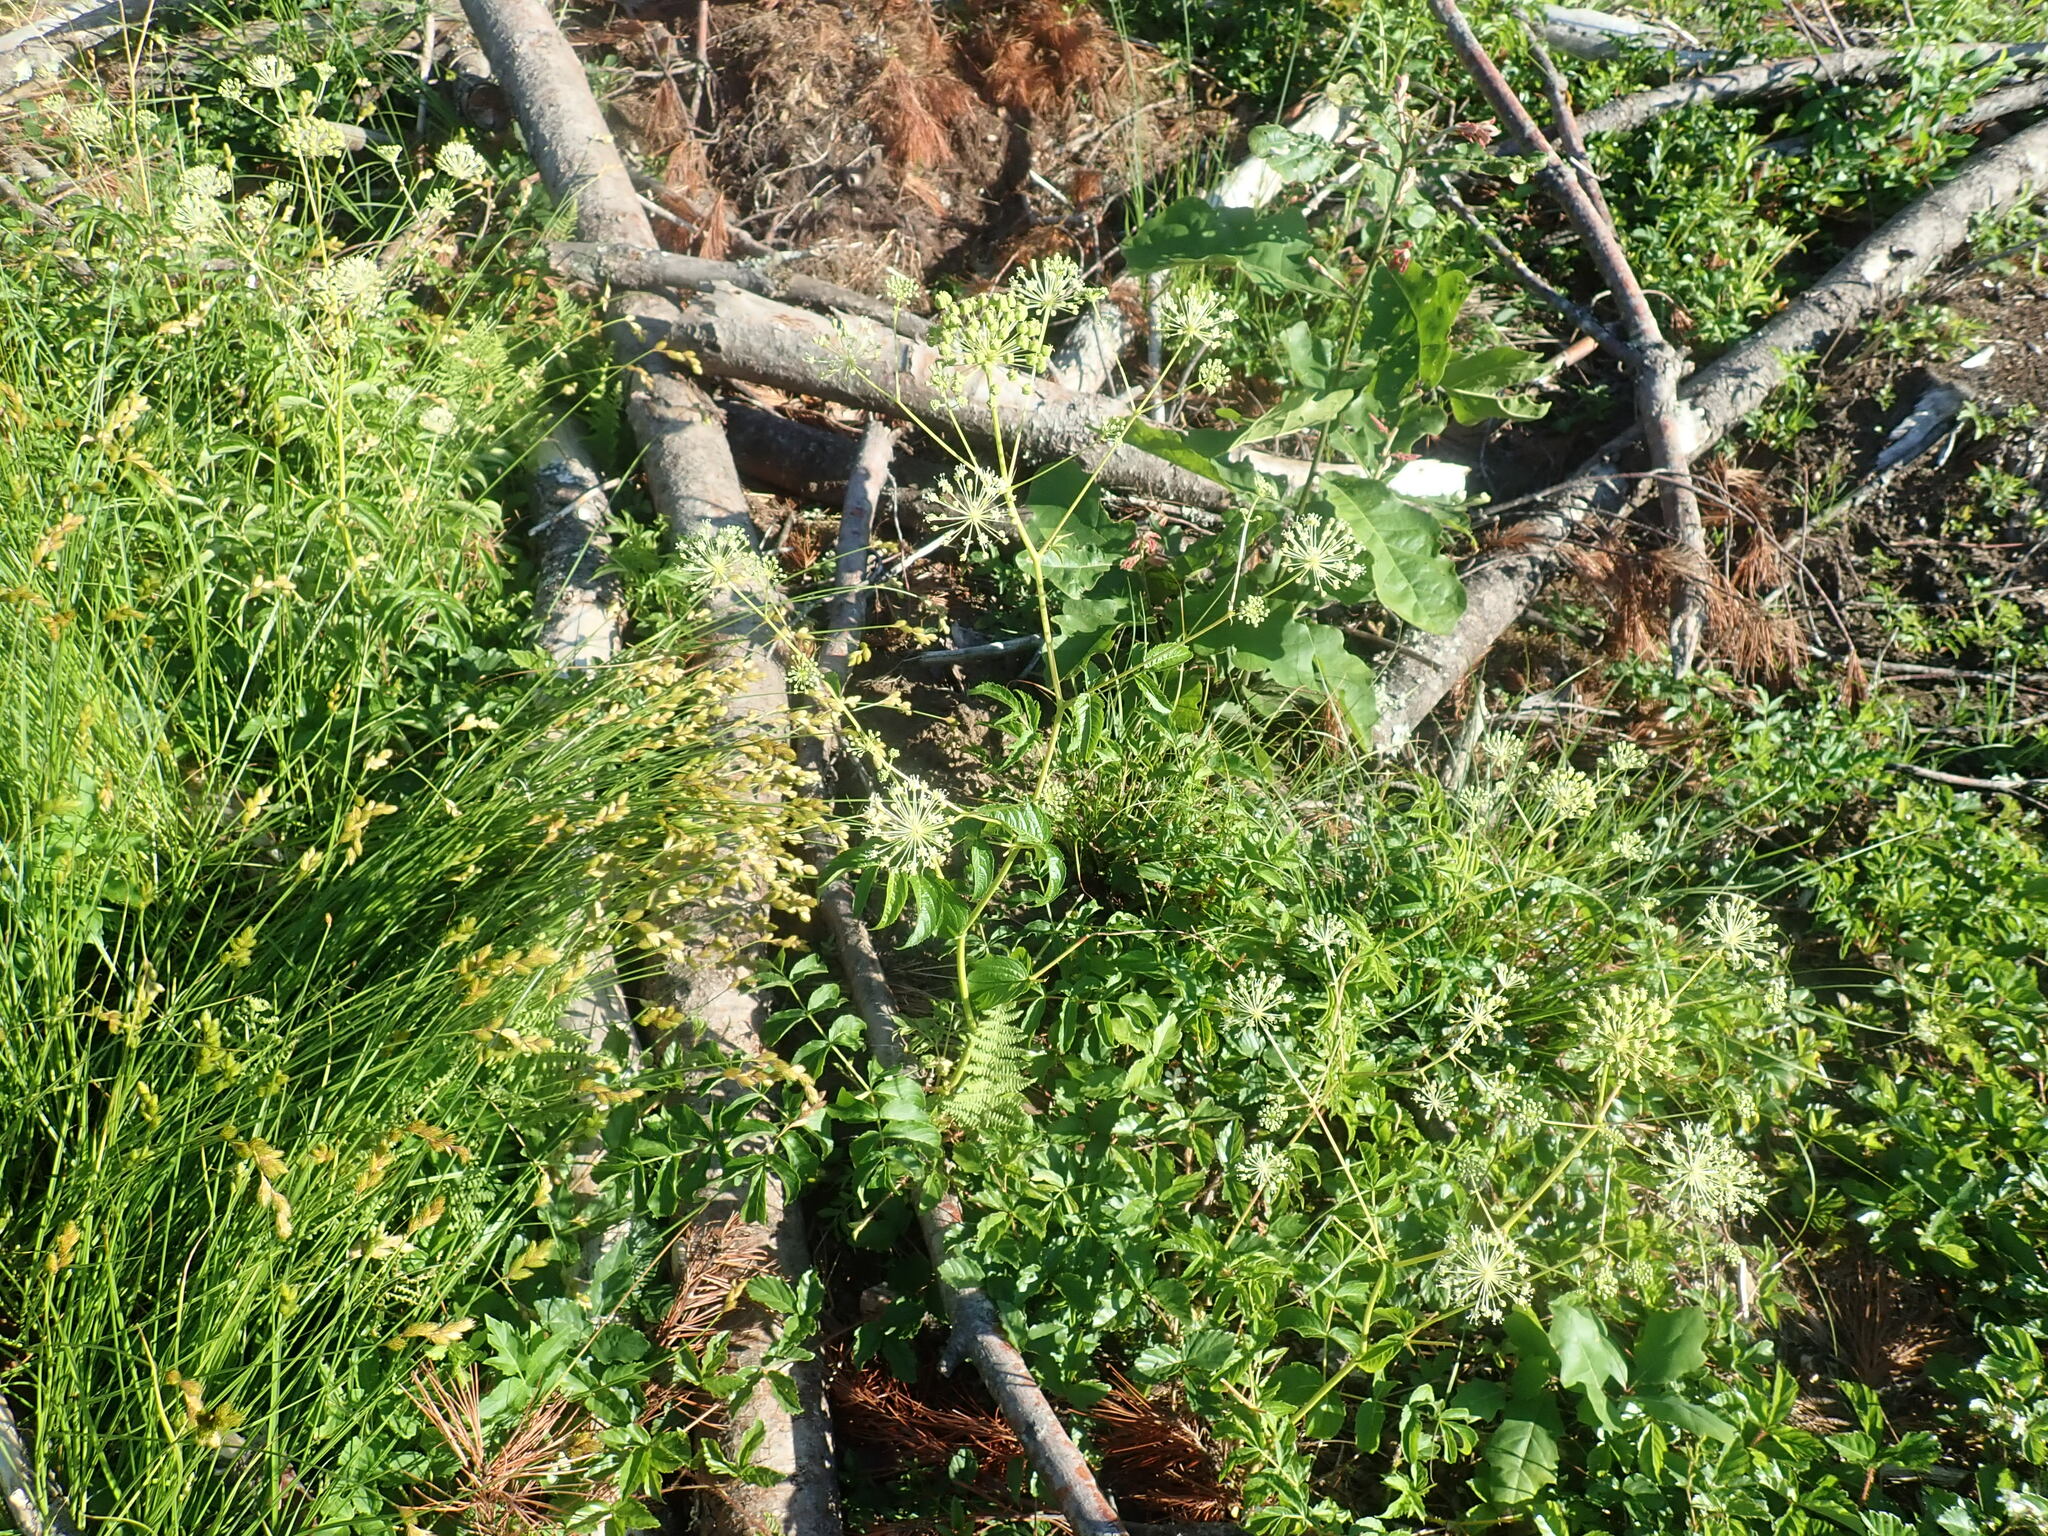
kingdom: Plantae
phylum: Tracheophyta
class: Magnoliopsida
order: Apiales
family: Araliaceae
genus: Aralia
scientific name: Aralia hispida
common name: Bristly sarsaparilla
